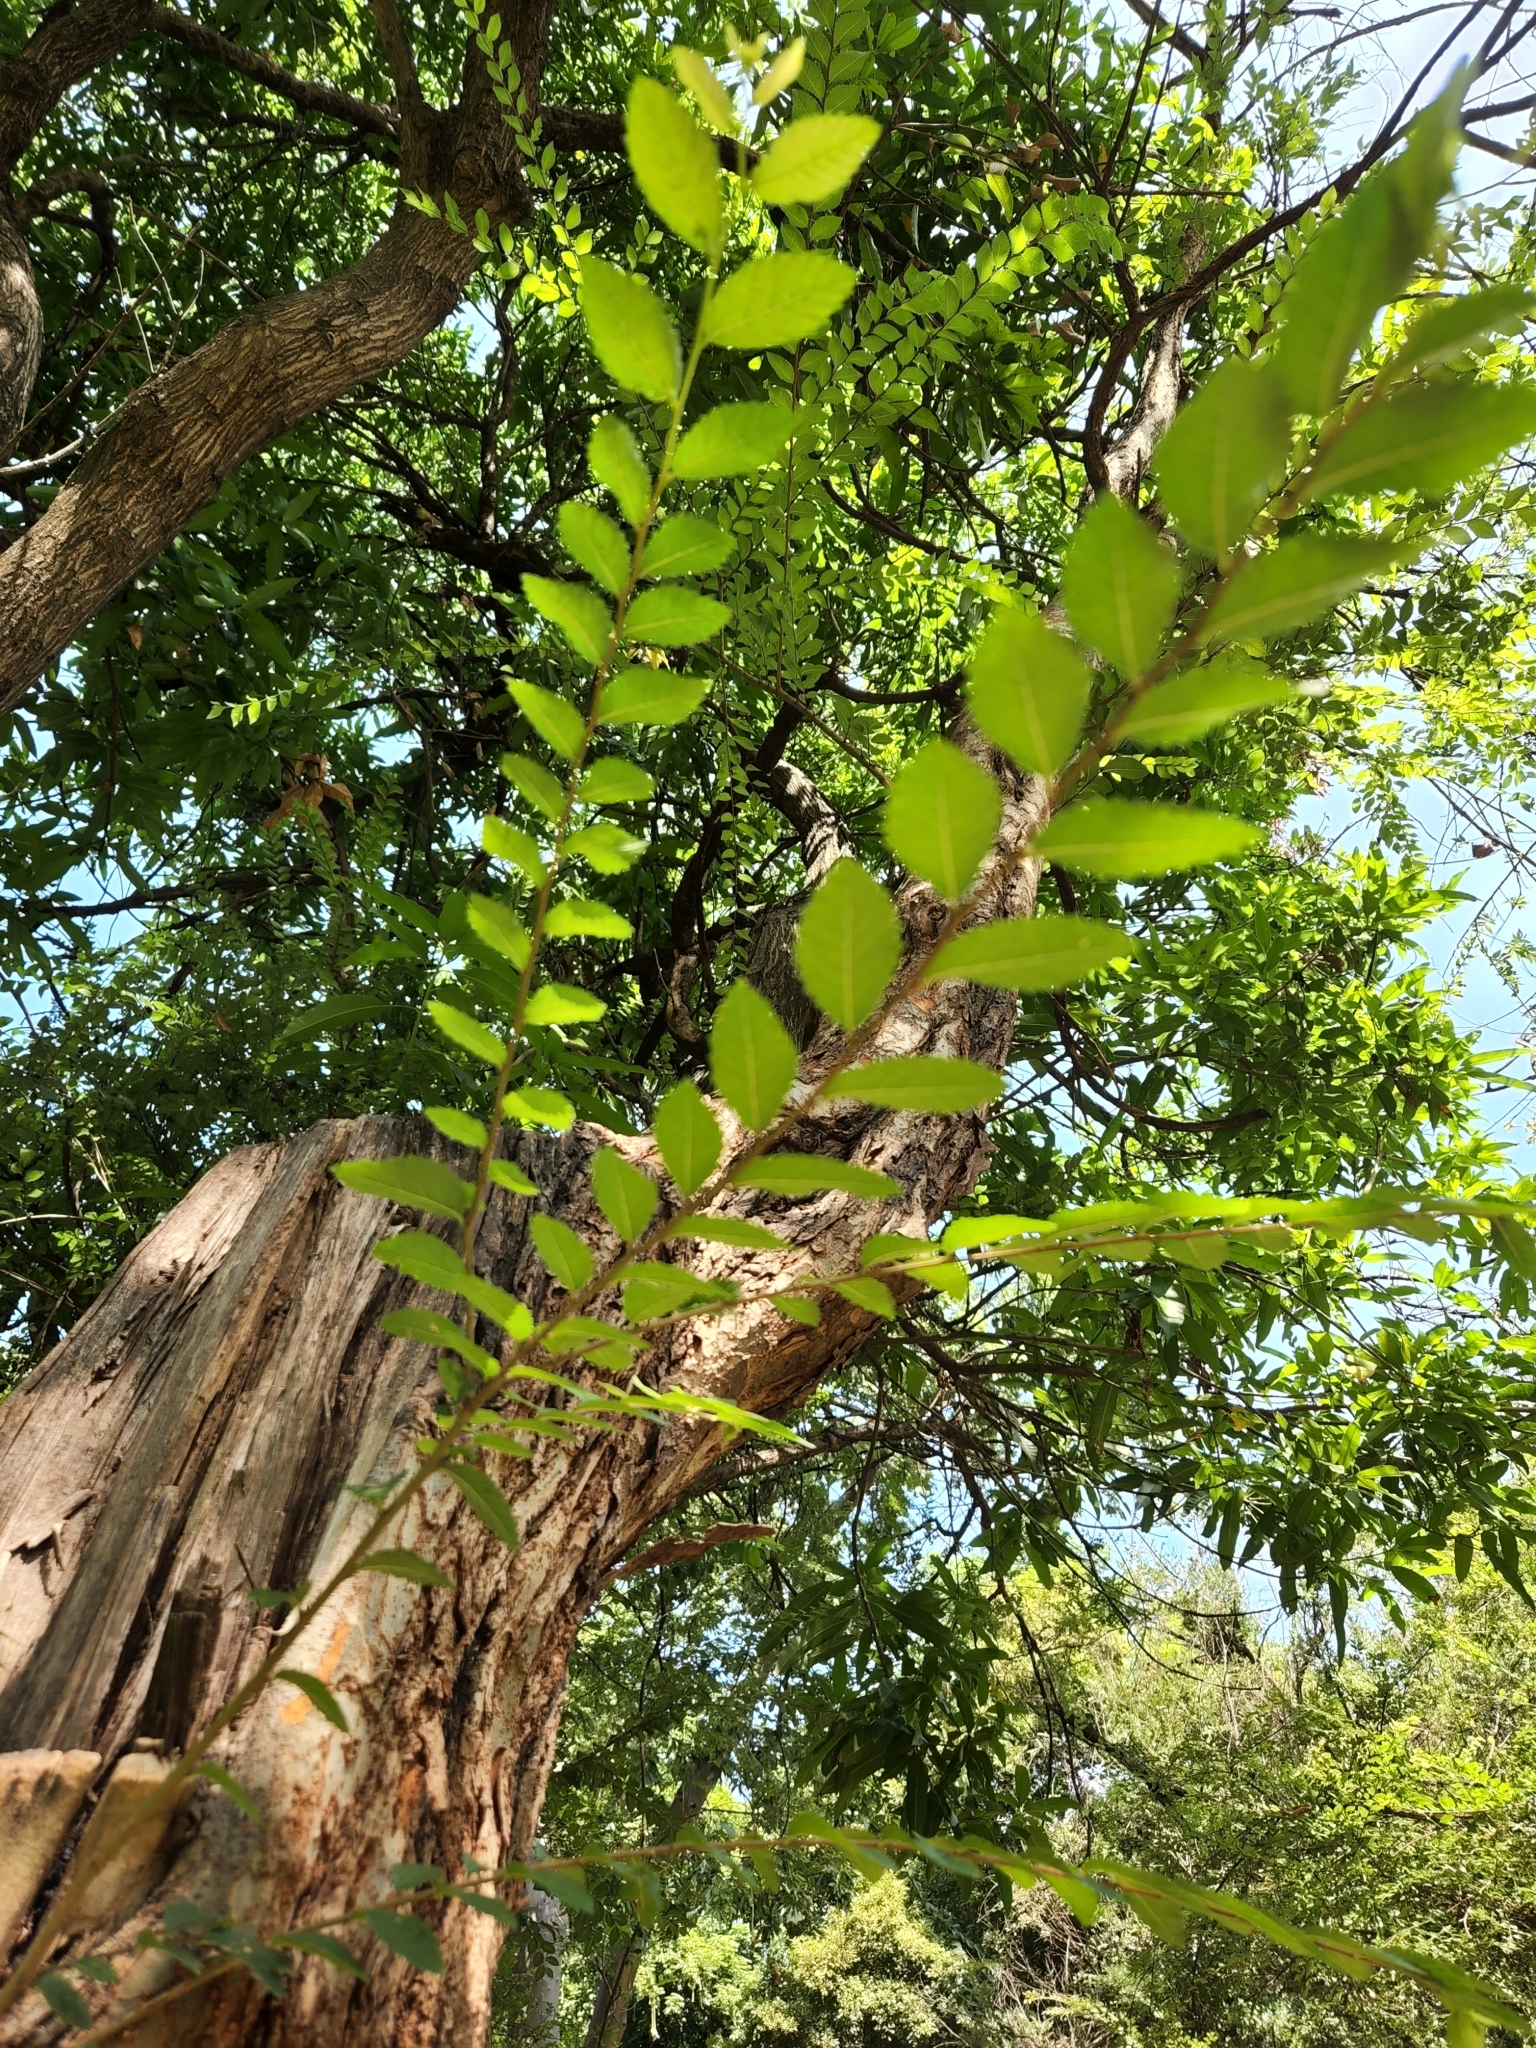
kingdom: Plantae
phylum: Tracheophyta
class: Magnoliopsida
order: Rosales
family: Ulmaceae
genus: Ulmus
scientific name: Ulmus parvifolia
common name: Chinese elm
